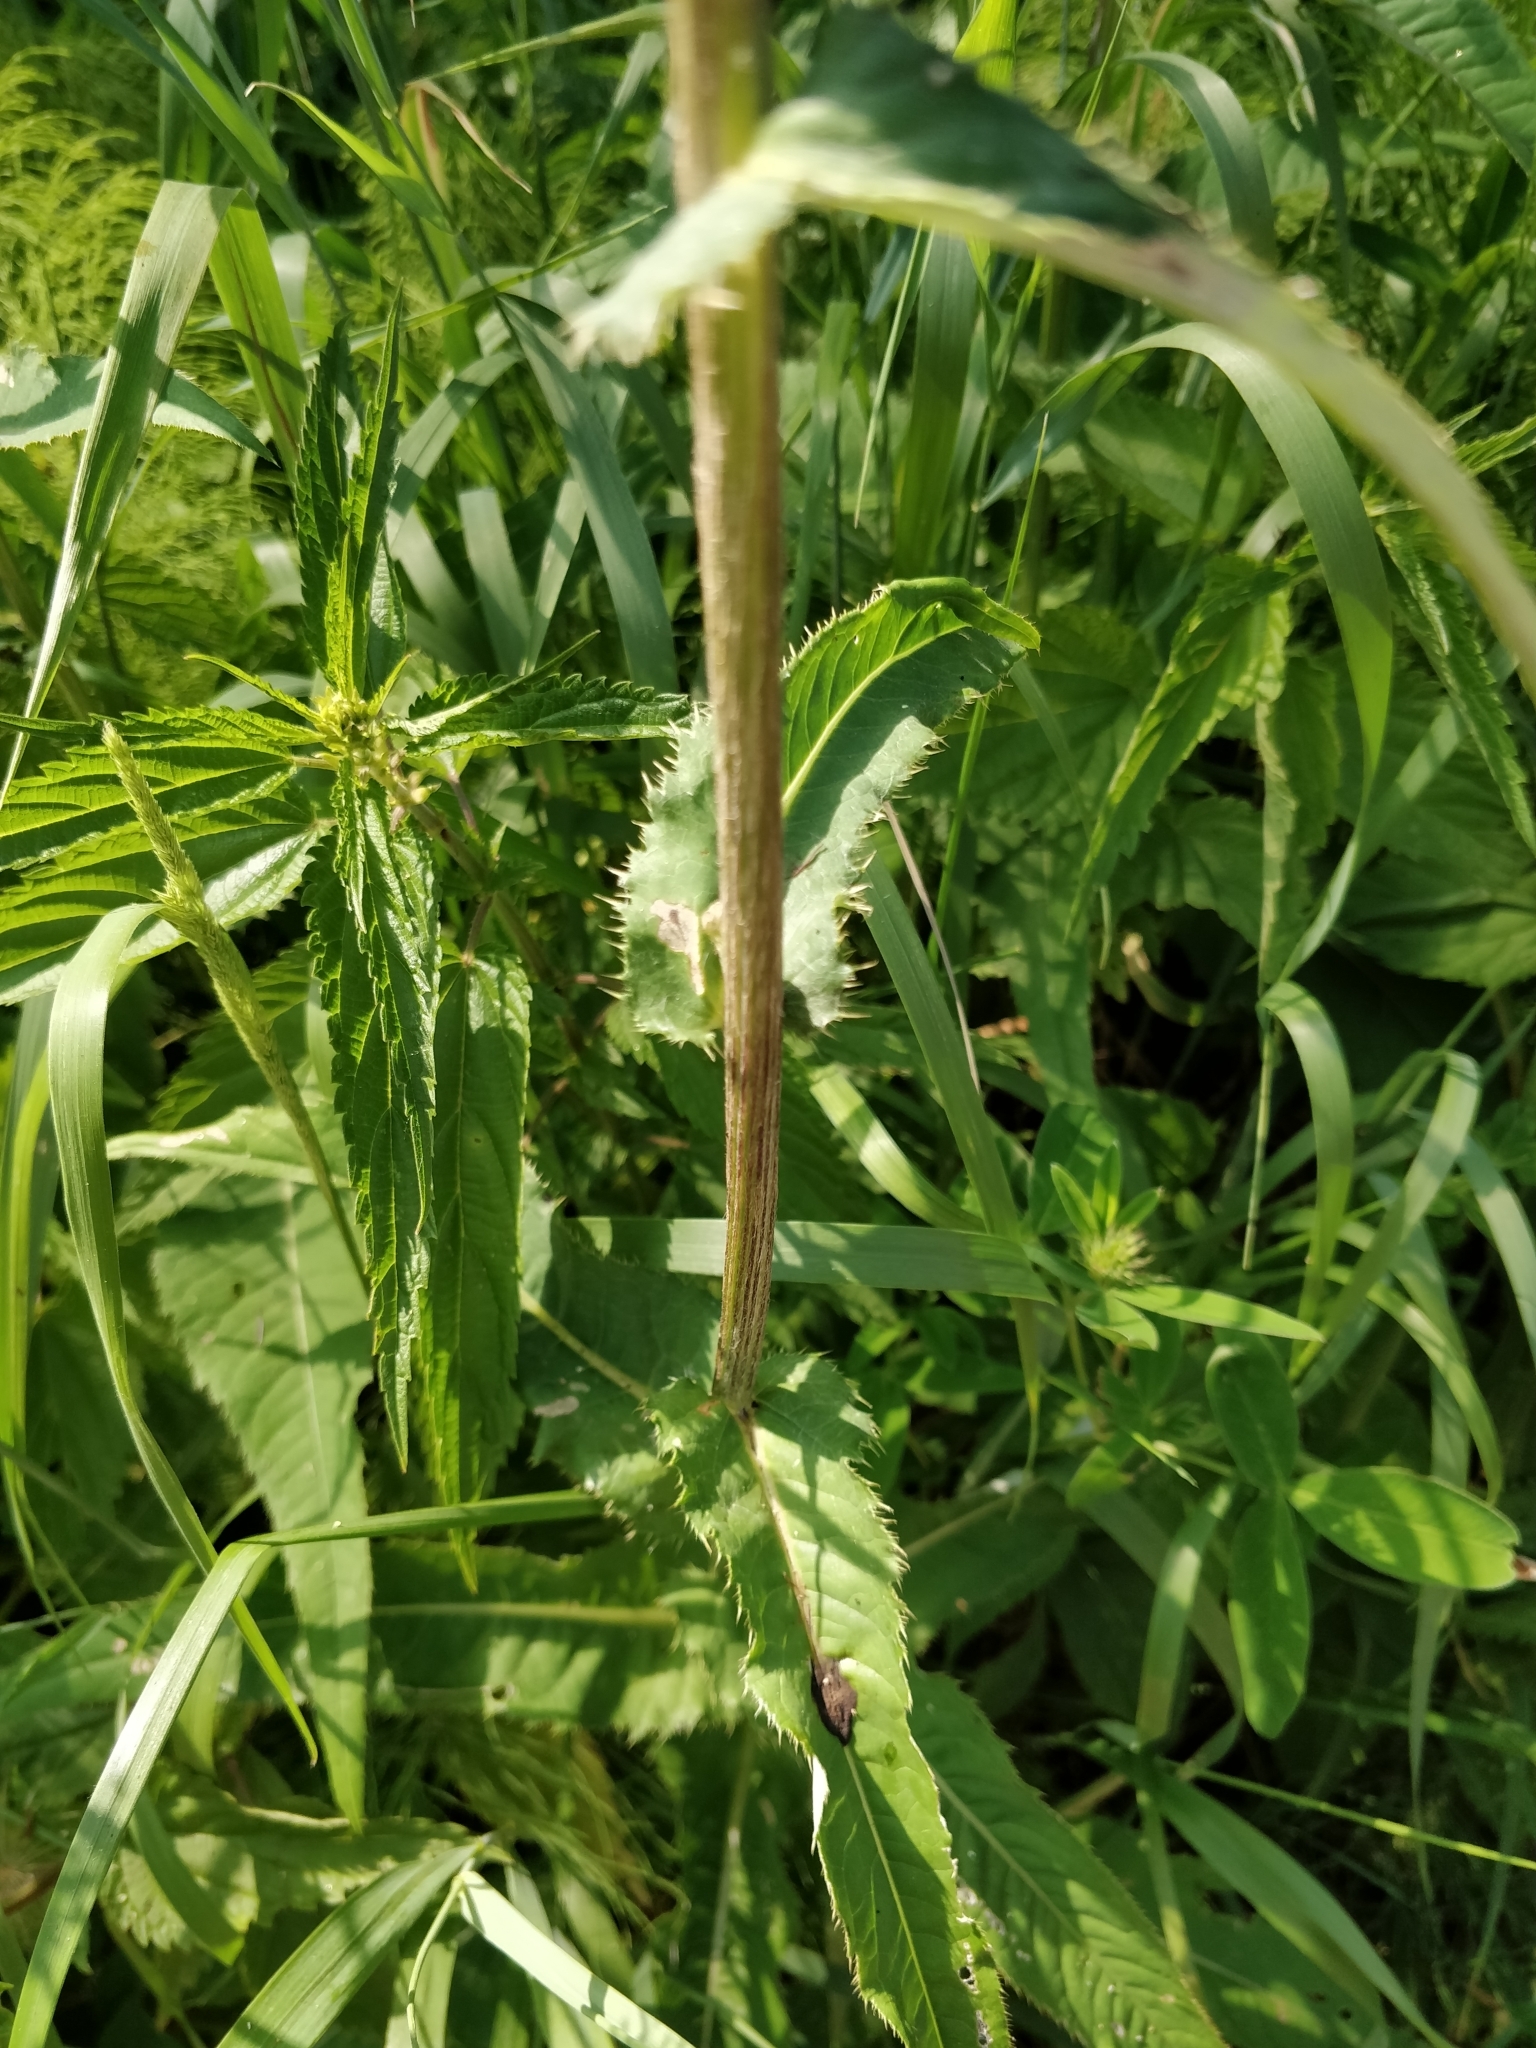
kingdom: Plantae
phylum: Tracheophyta
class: Magnoliopsida
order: Asterales
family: Asteraceae
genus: Cirsium
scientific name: Cirsium heterophyllum
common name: Melancholy thistle
